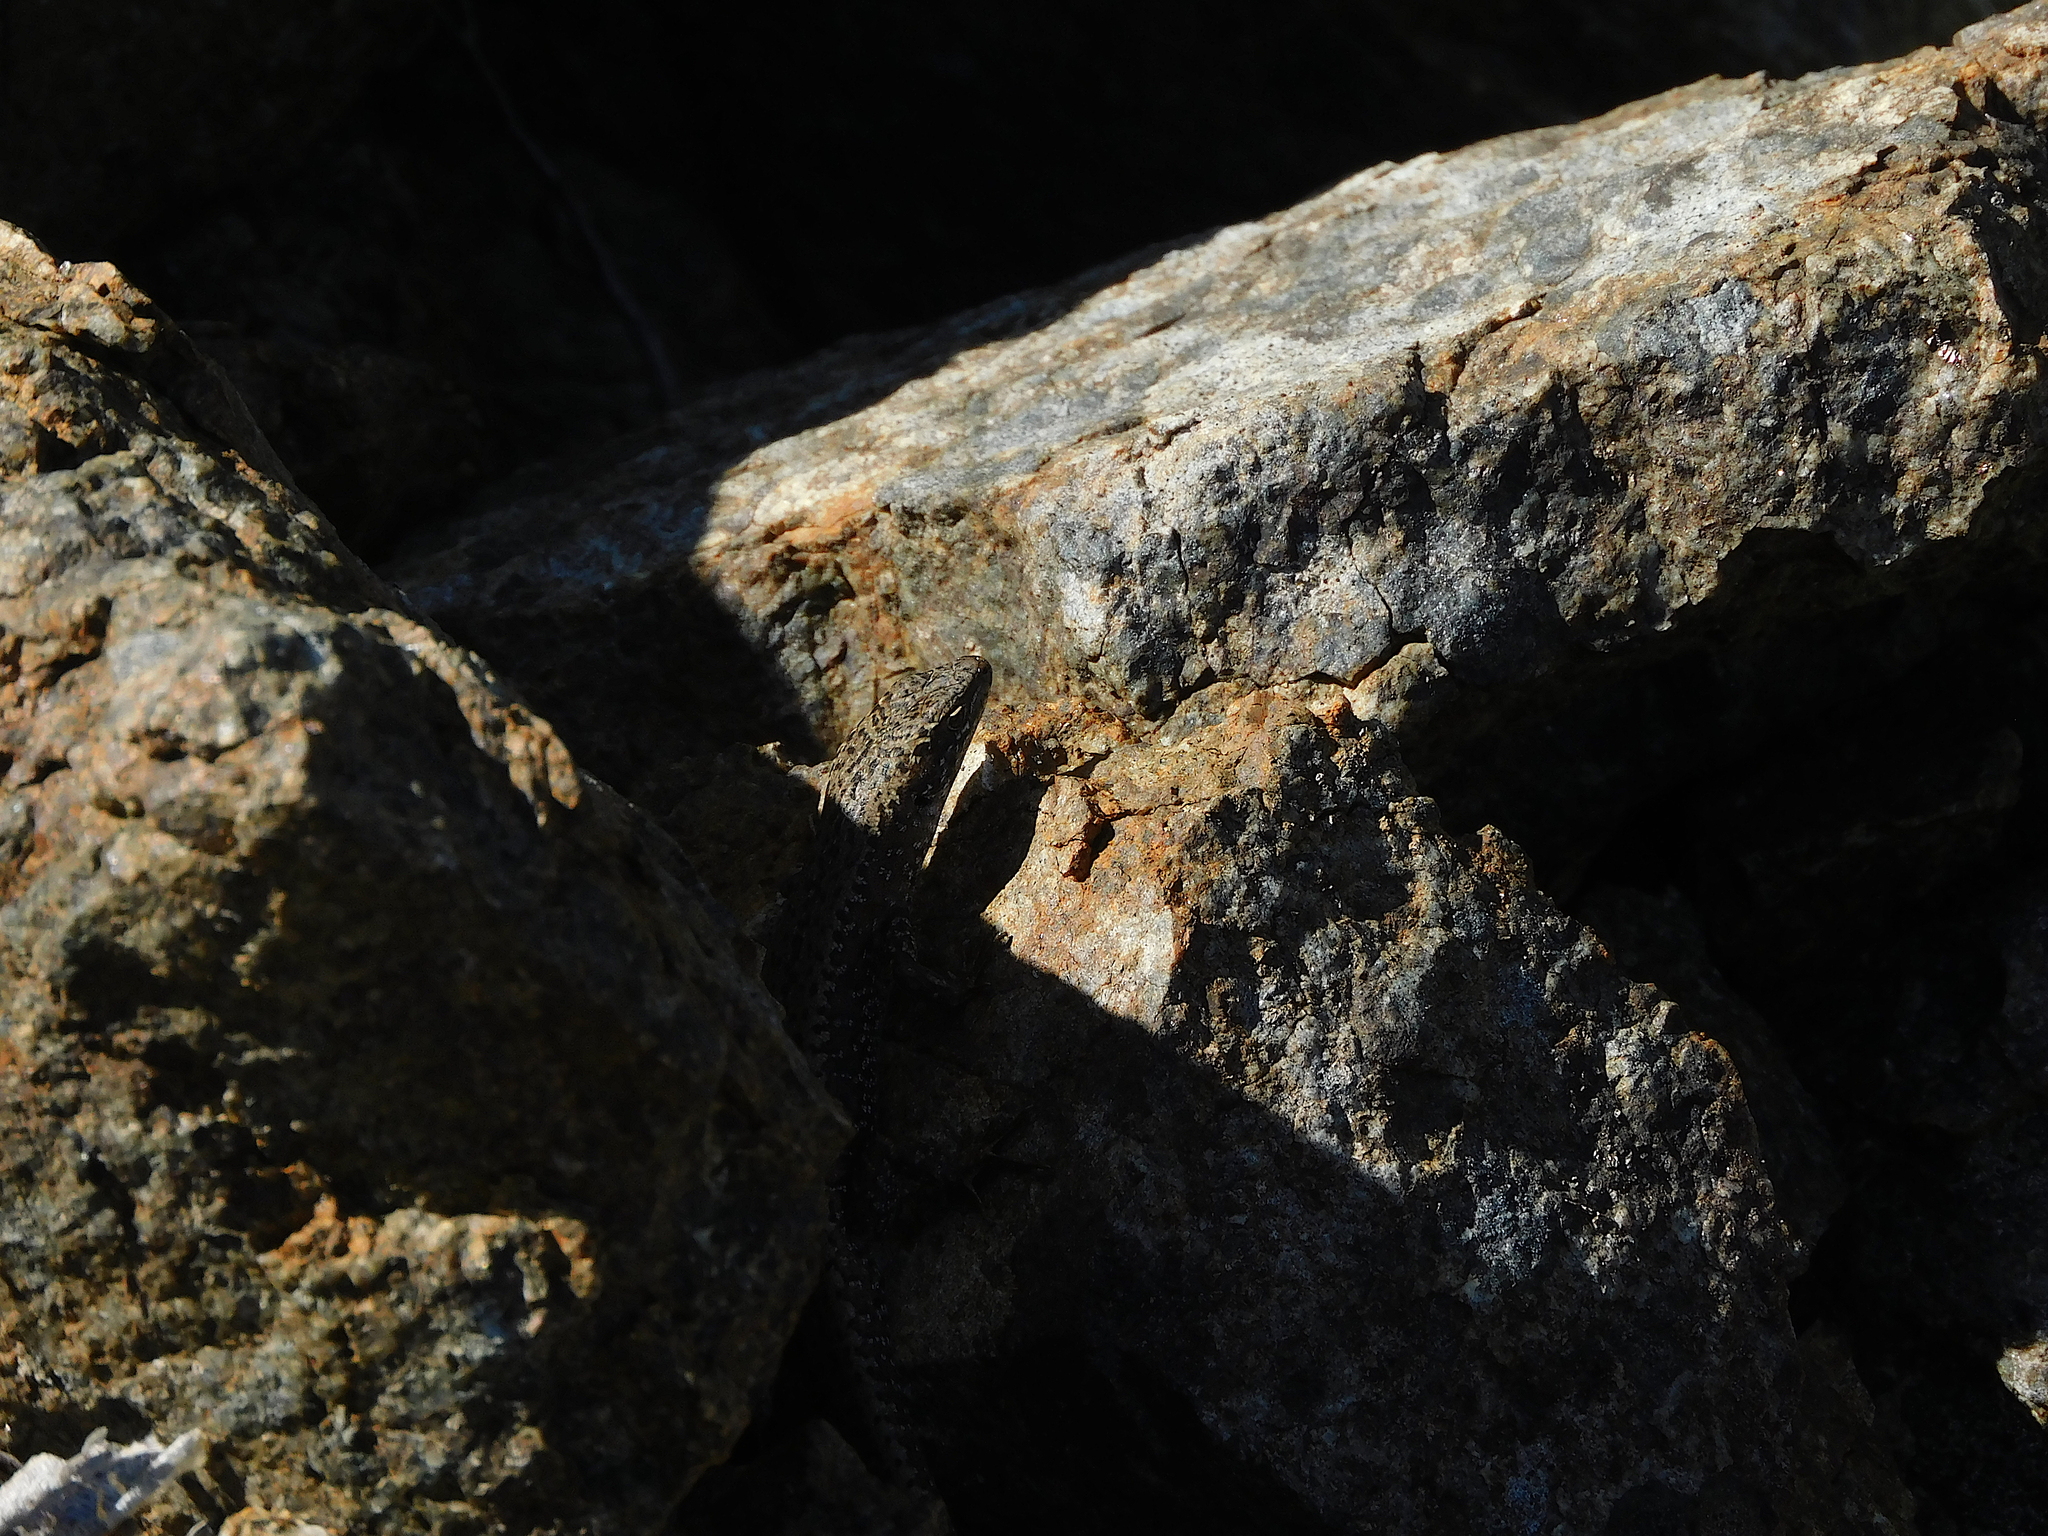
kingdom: Animalia
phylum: Chordata
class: Squamata
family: Scincidae
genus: Carinascincus
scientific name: Carinascincus ocellatus
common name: Ocellated cool-skink
